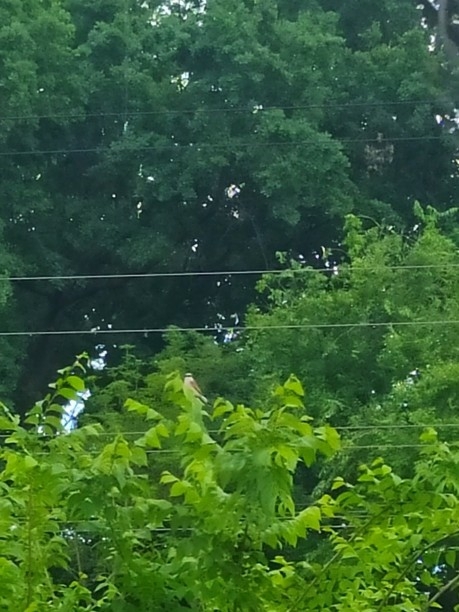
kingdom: Animalia
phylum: Chordata
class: Aves
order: Passeriformes
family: Laniidae
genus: Lanius
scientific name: Lanius collurio
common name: Red-backed shrike
